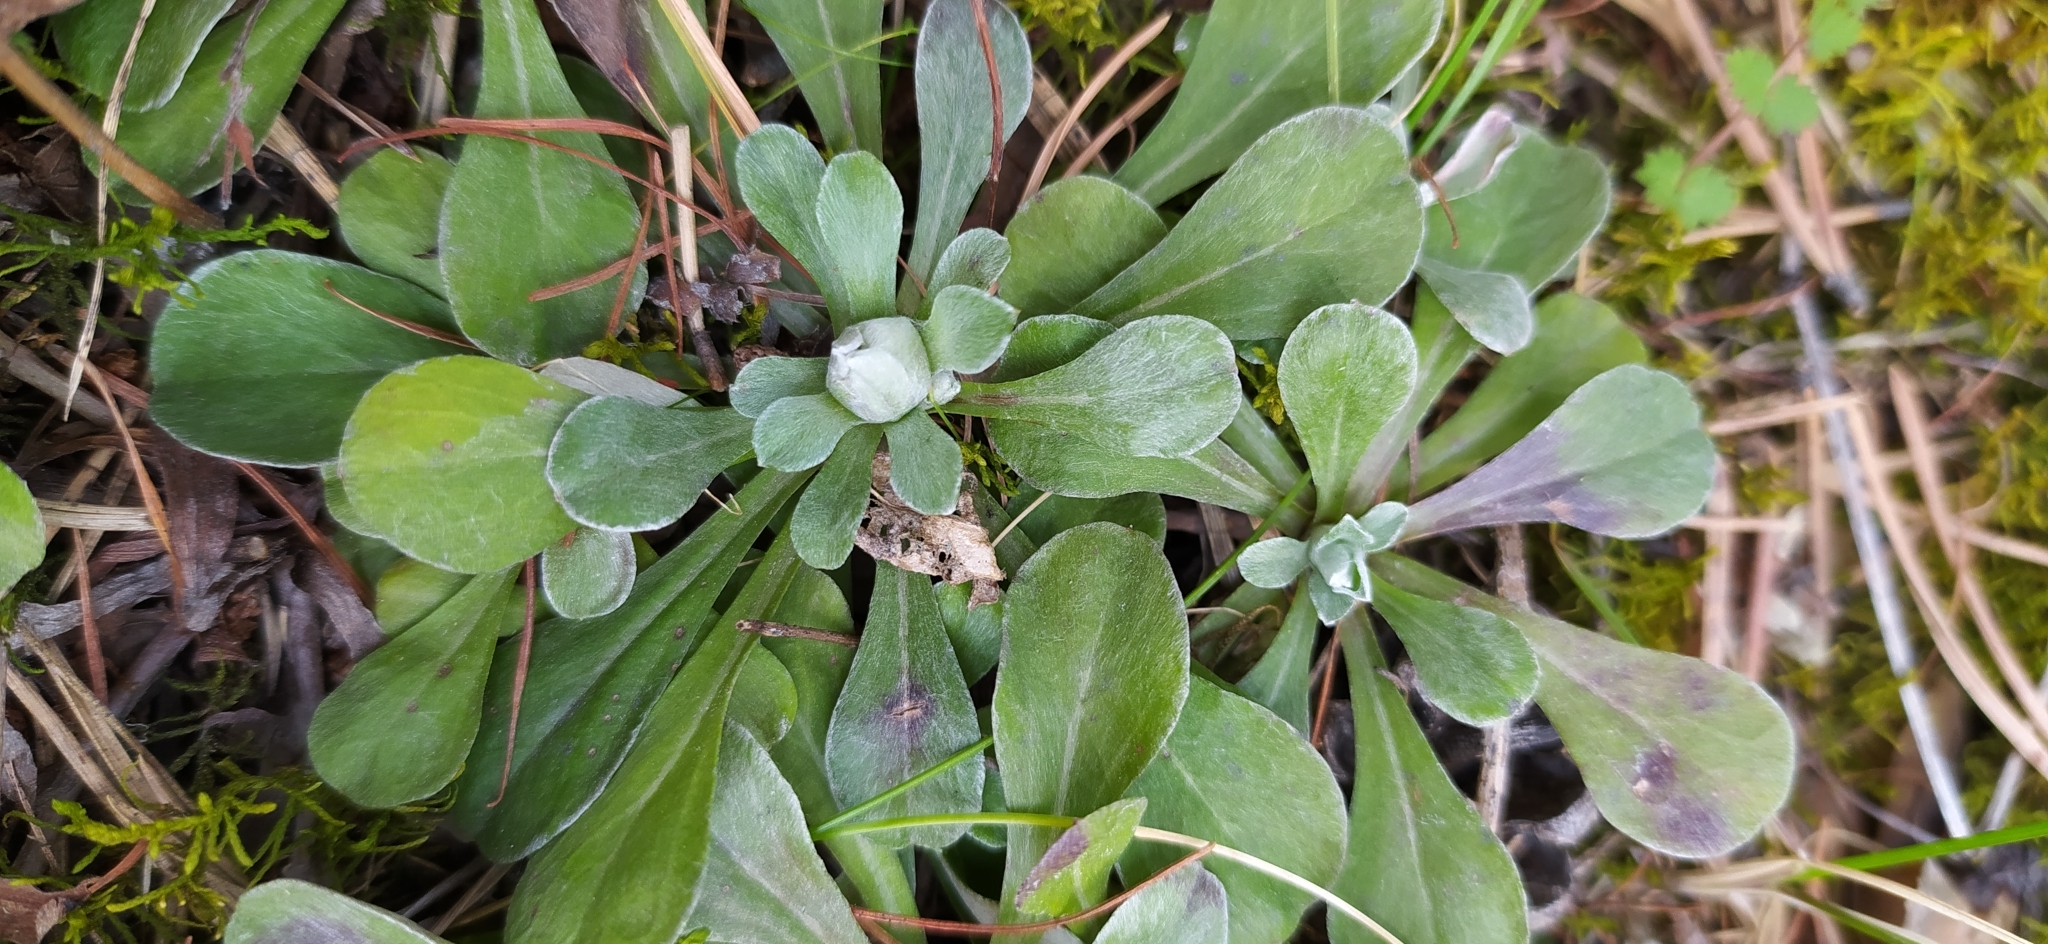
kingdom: Plantae
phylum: Tracheophyta
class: Magnoliopsida
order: Asterales
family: Asteraceae
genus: Antennaria
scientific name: Antennaria dioica
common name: Mountain everlasting
